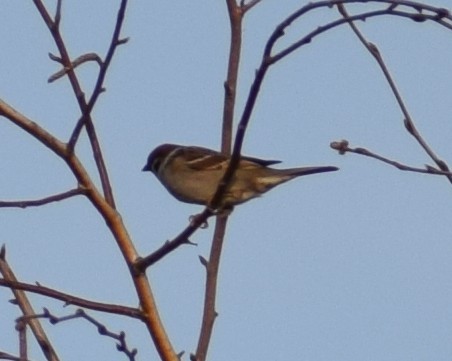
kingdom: Animalia
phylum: Chordata
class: Aves
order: Passeriformes
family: Passeridae
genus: Passer
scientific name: Passer montanus
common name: Eurasian tree sparrow
